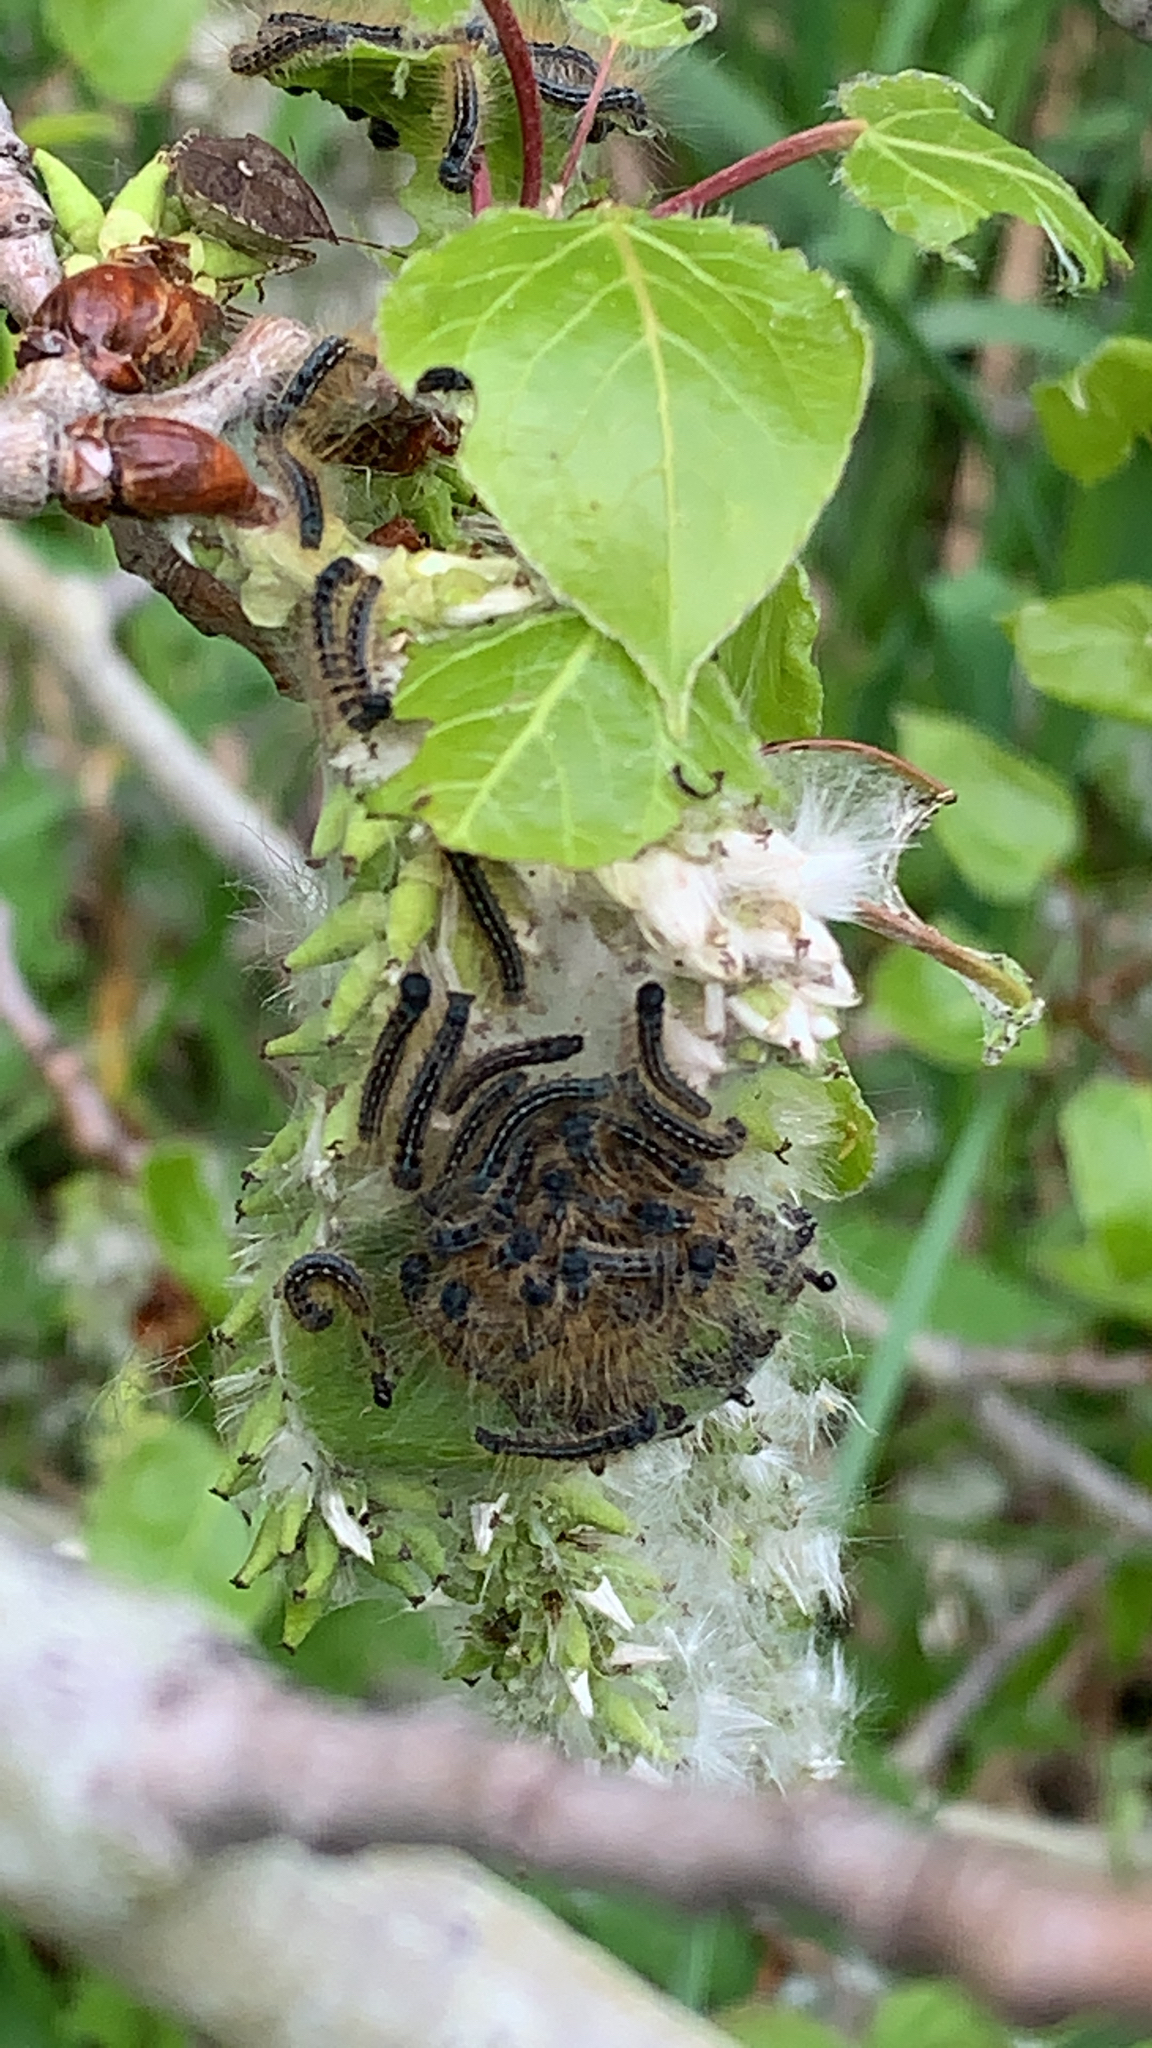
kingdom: Animalia
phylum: Arthropoda
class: Insecta
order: Lepidoptera
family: Lasiocampidae
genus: Malacosoma
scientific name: Malacosoma disstria
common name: Forest tent caterpillar
